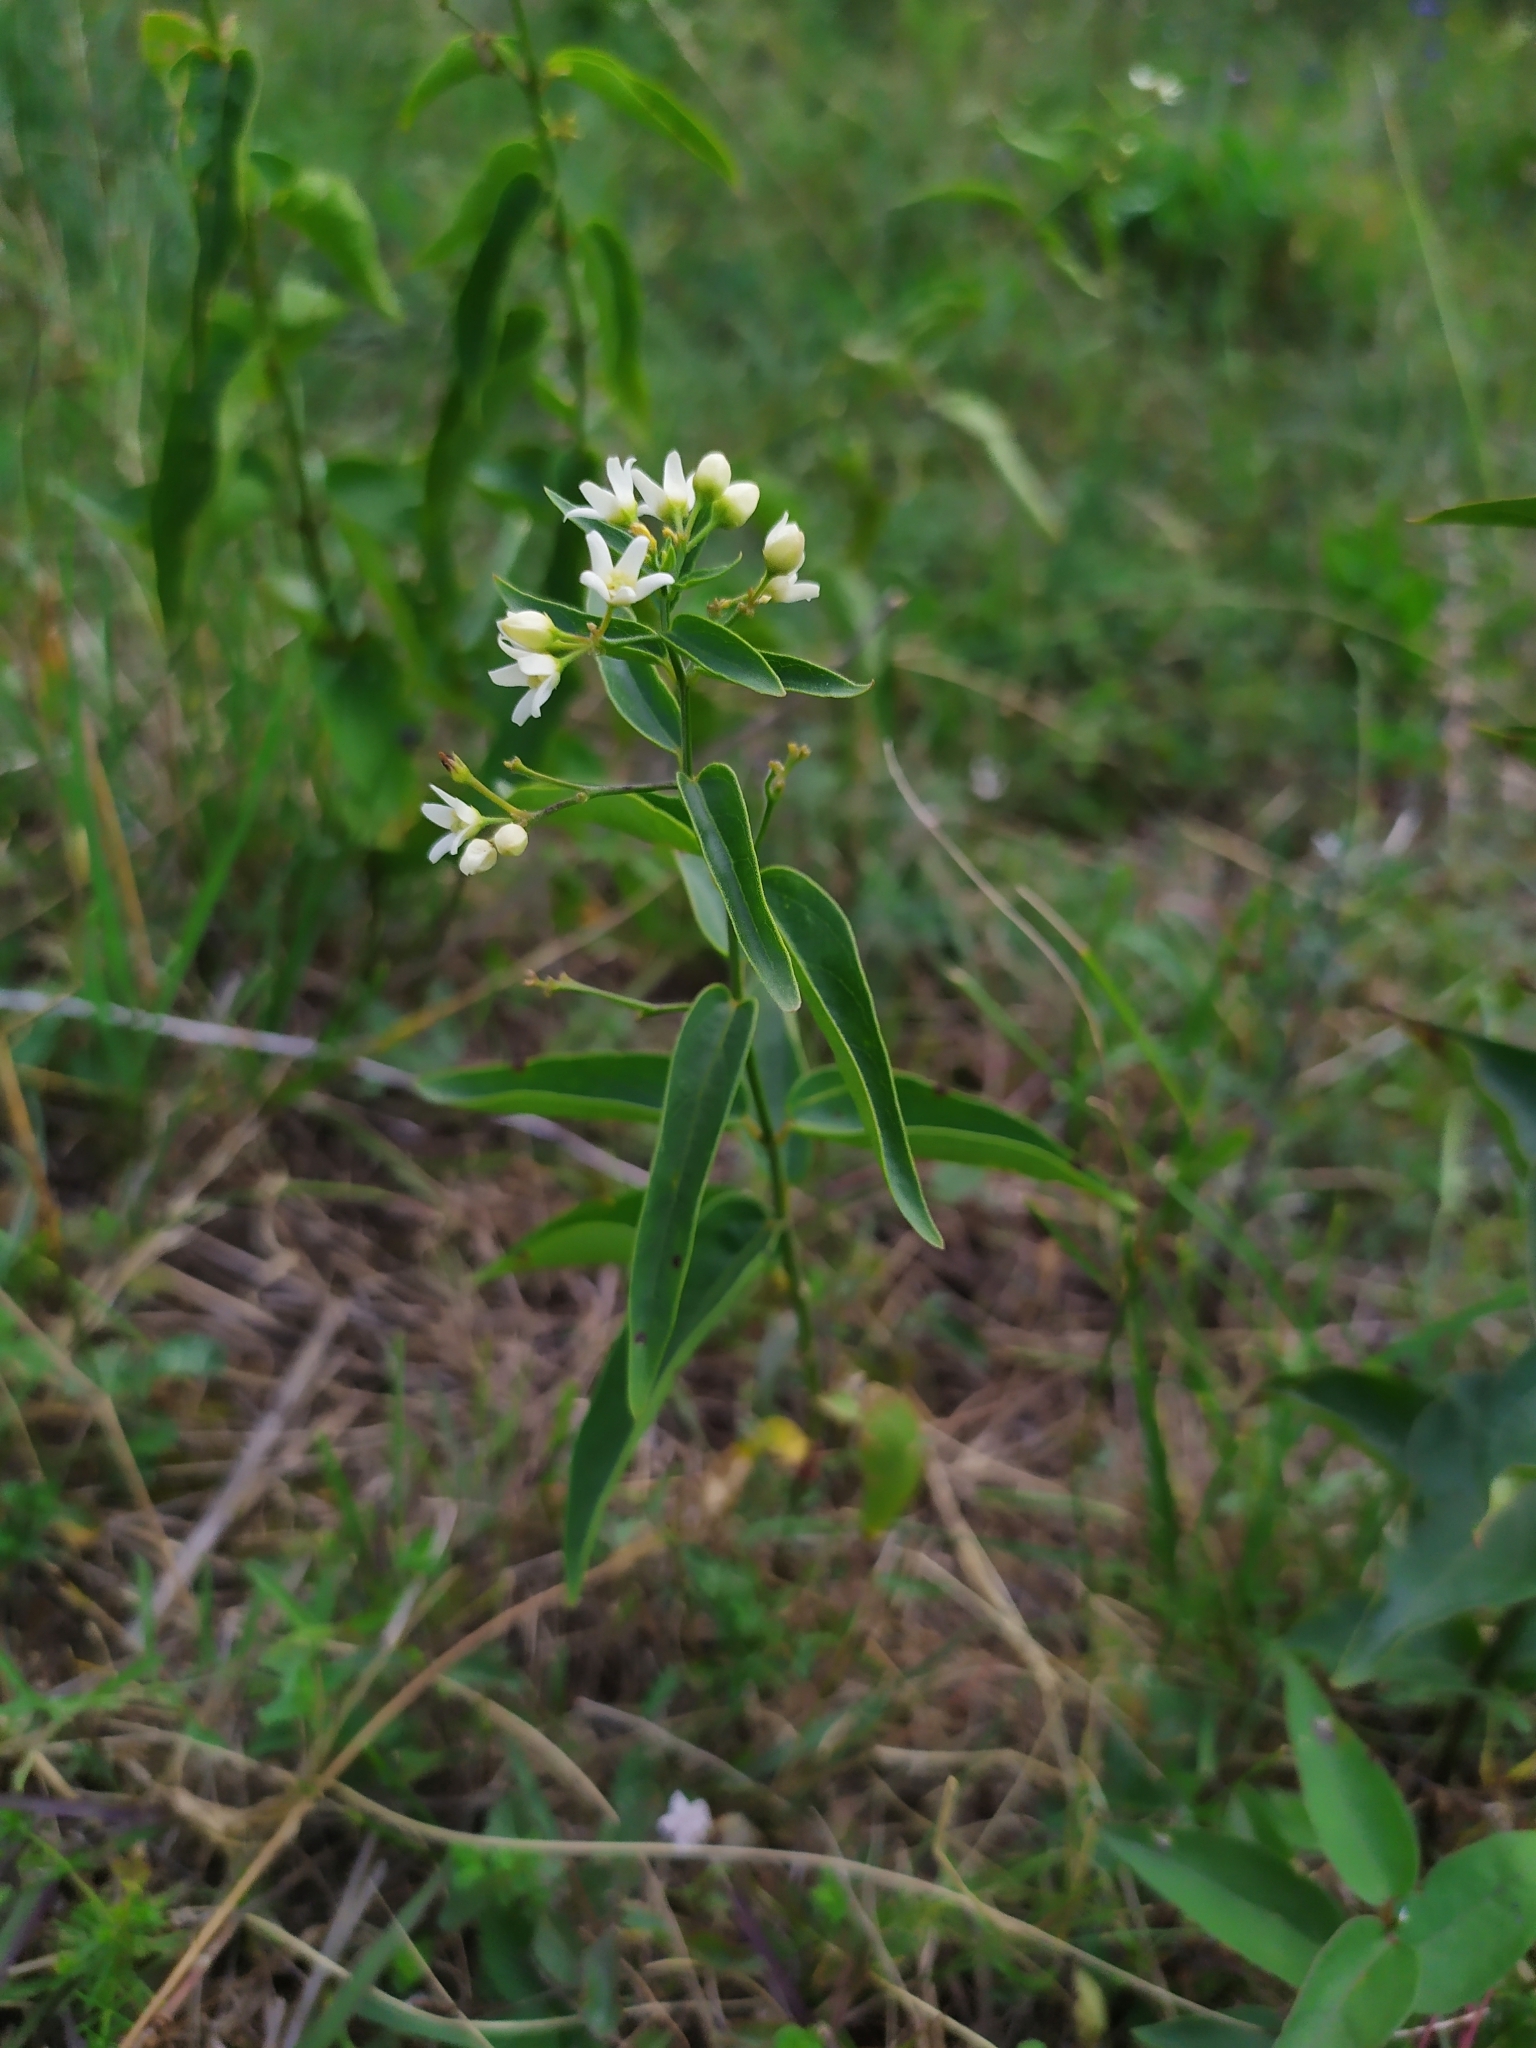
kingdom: Plantae
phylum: Tracheophyta
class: Magnoliopsida
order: Gentianales
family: Apocynaceae
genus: Vincetoxicum
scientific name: Vincetoxicum hirundinaria
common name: White swallowwort
